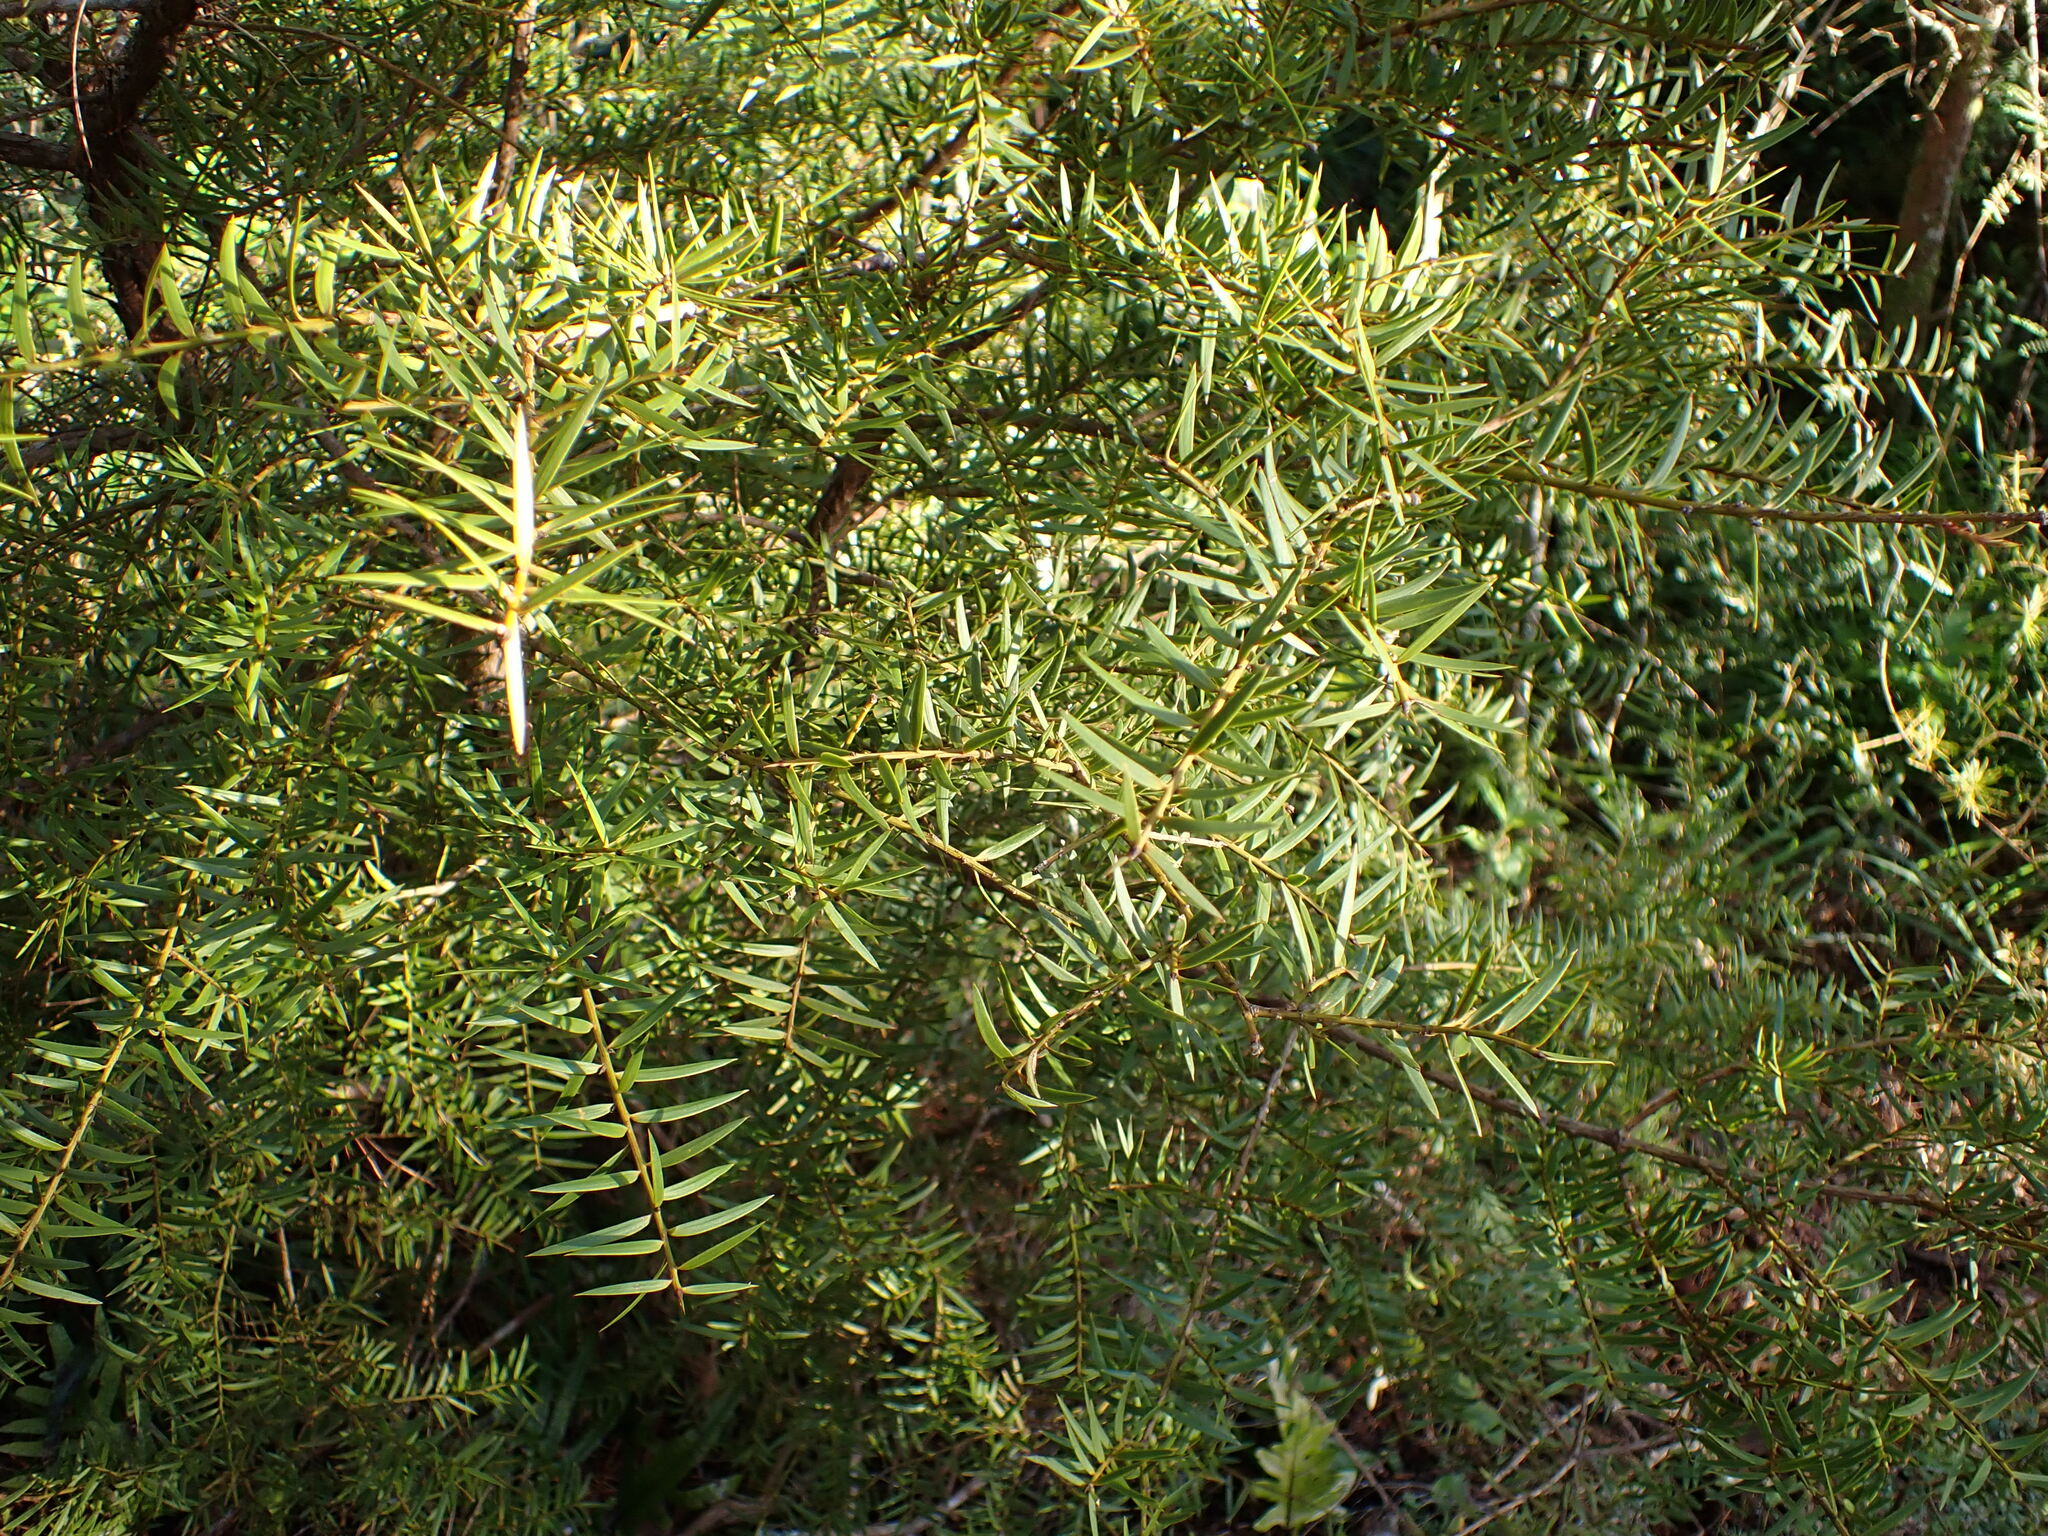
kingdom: Plantae
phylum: Tracheophyta
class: Pinopsida
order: Pinales
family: Podocarpaceae
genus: Podocarpus
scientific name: Podocarpus totara
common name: Totara
